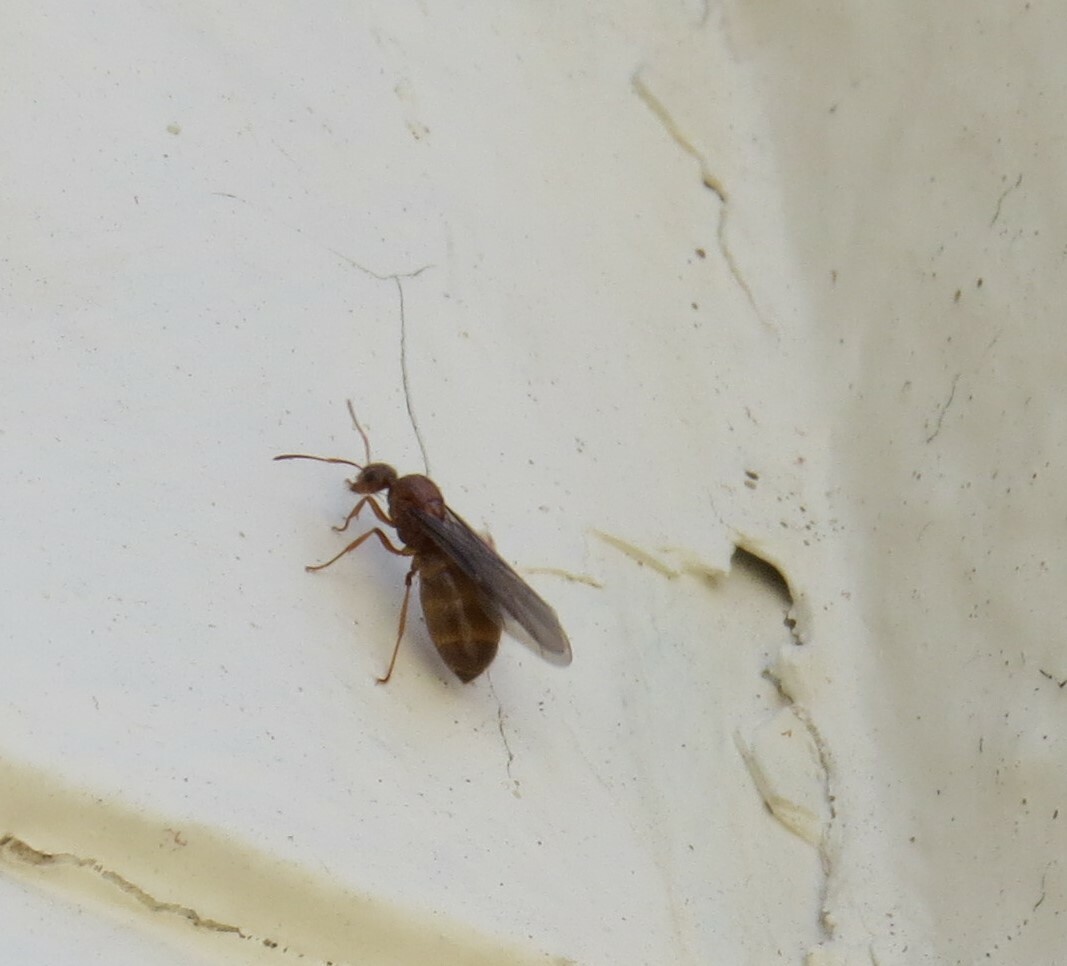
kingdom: Animalia
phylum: Arthropoda
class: Insecta
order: Hymenoptera
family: Formicidae
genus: Prenolepis
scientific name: Prenolepis imparis
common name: Small honey ant
